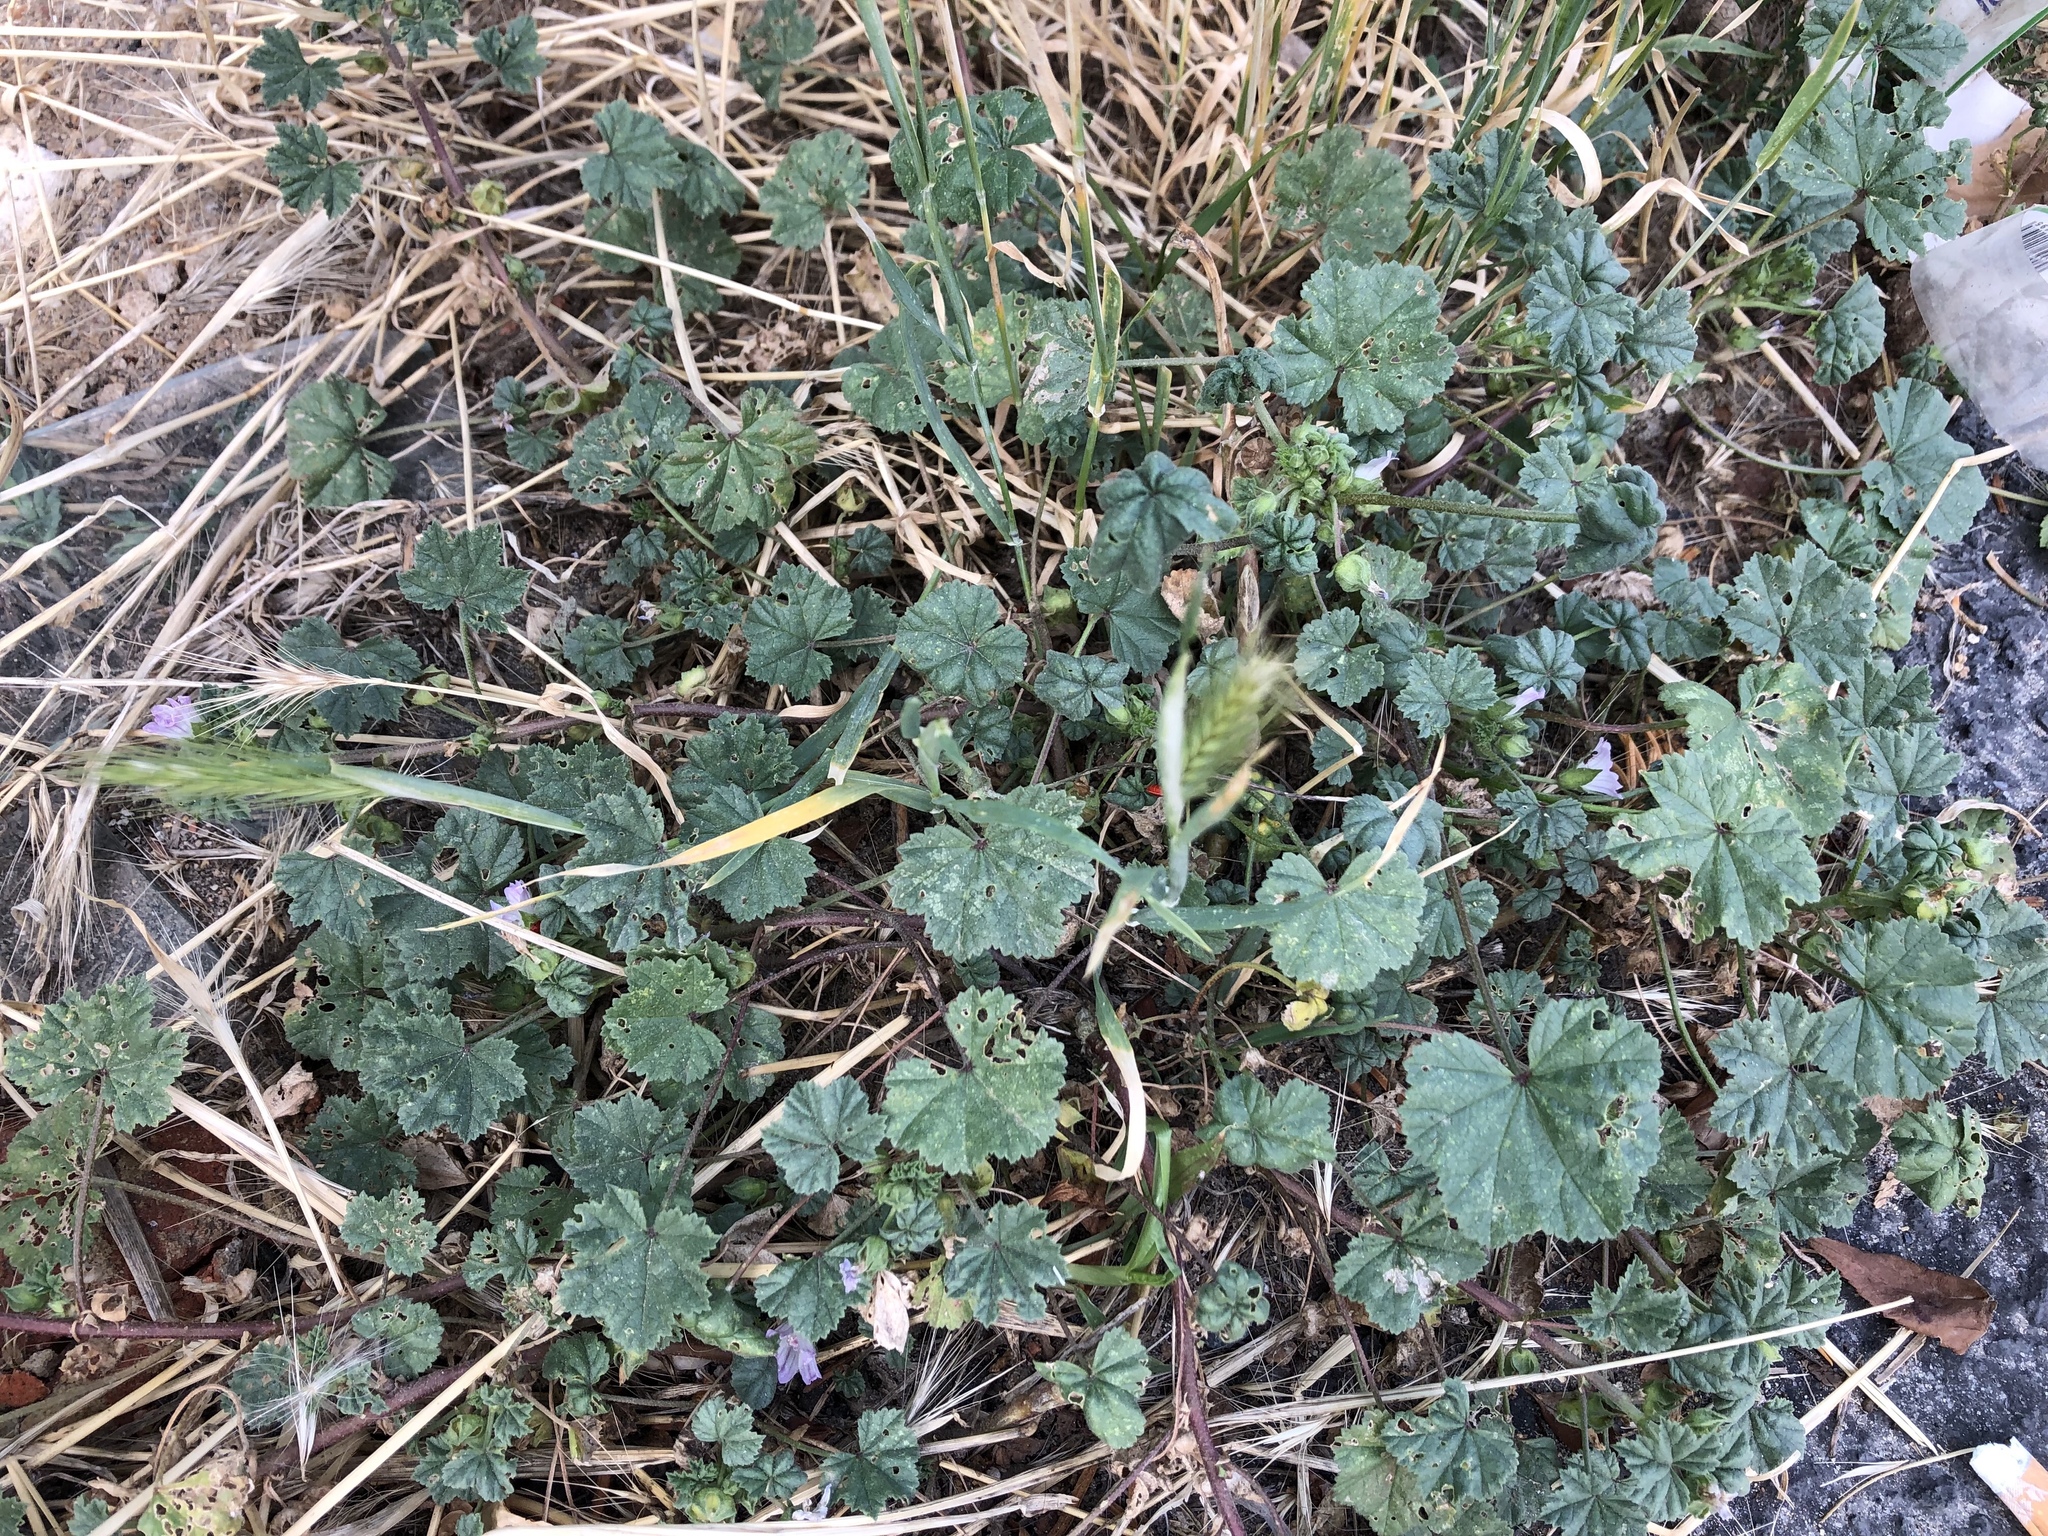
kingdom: Plantae
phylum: Tracheophyta
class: Magnoliopsida
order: Malvales
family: Malvaceae
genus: Malva
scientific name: Malva neglecta
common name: Common mallow
